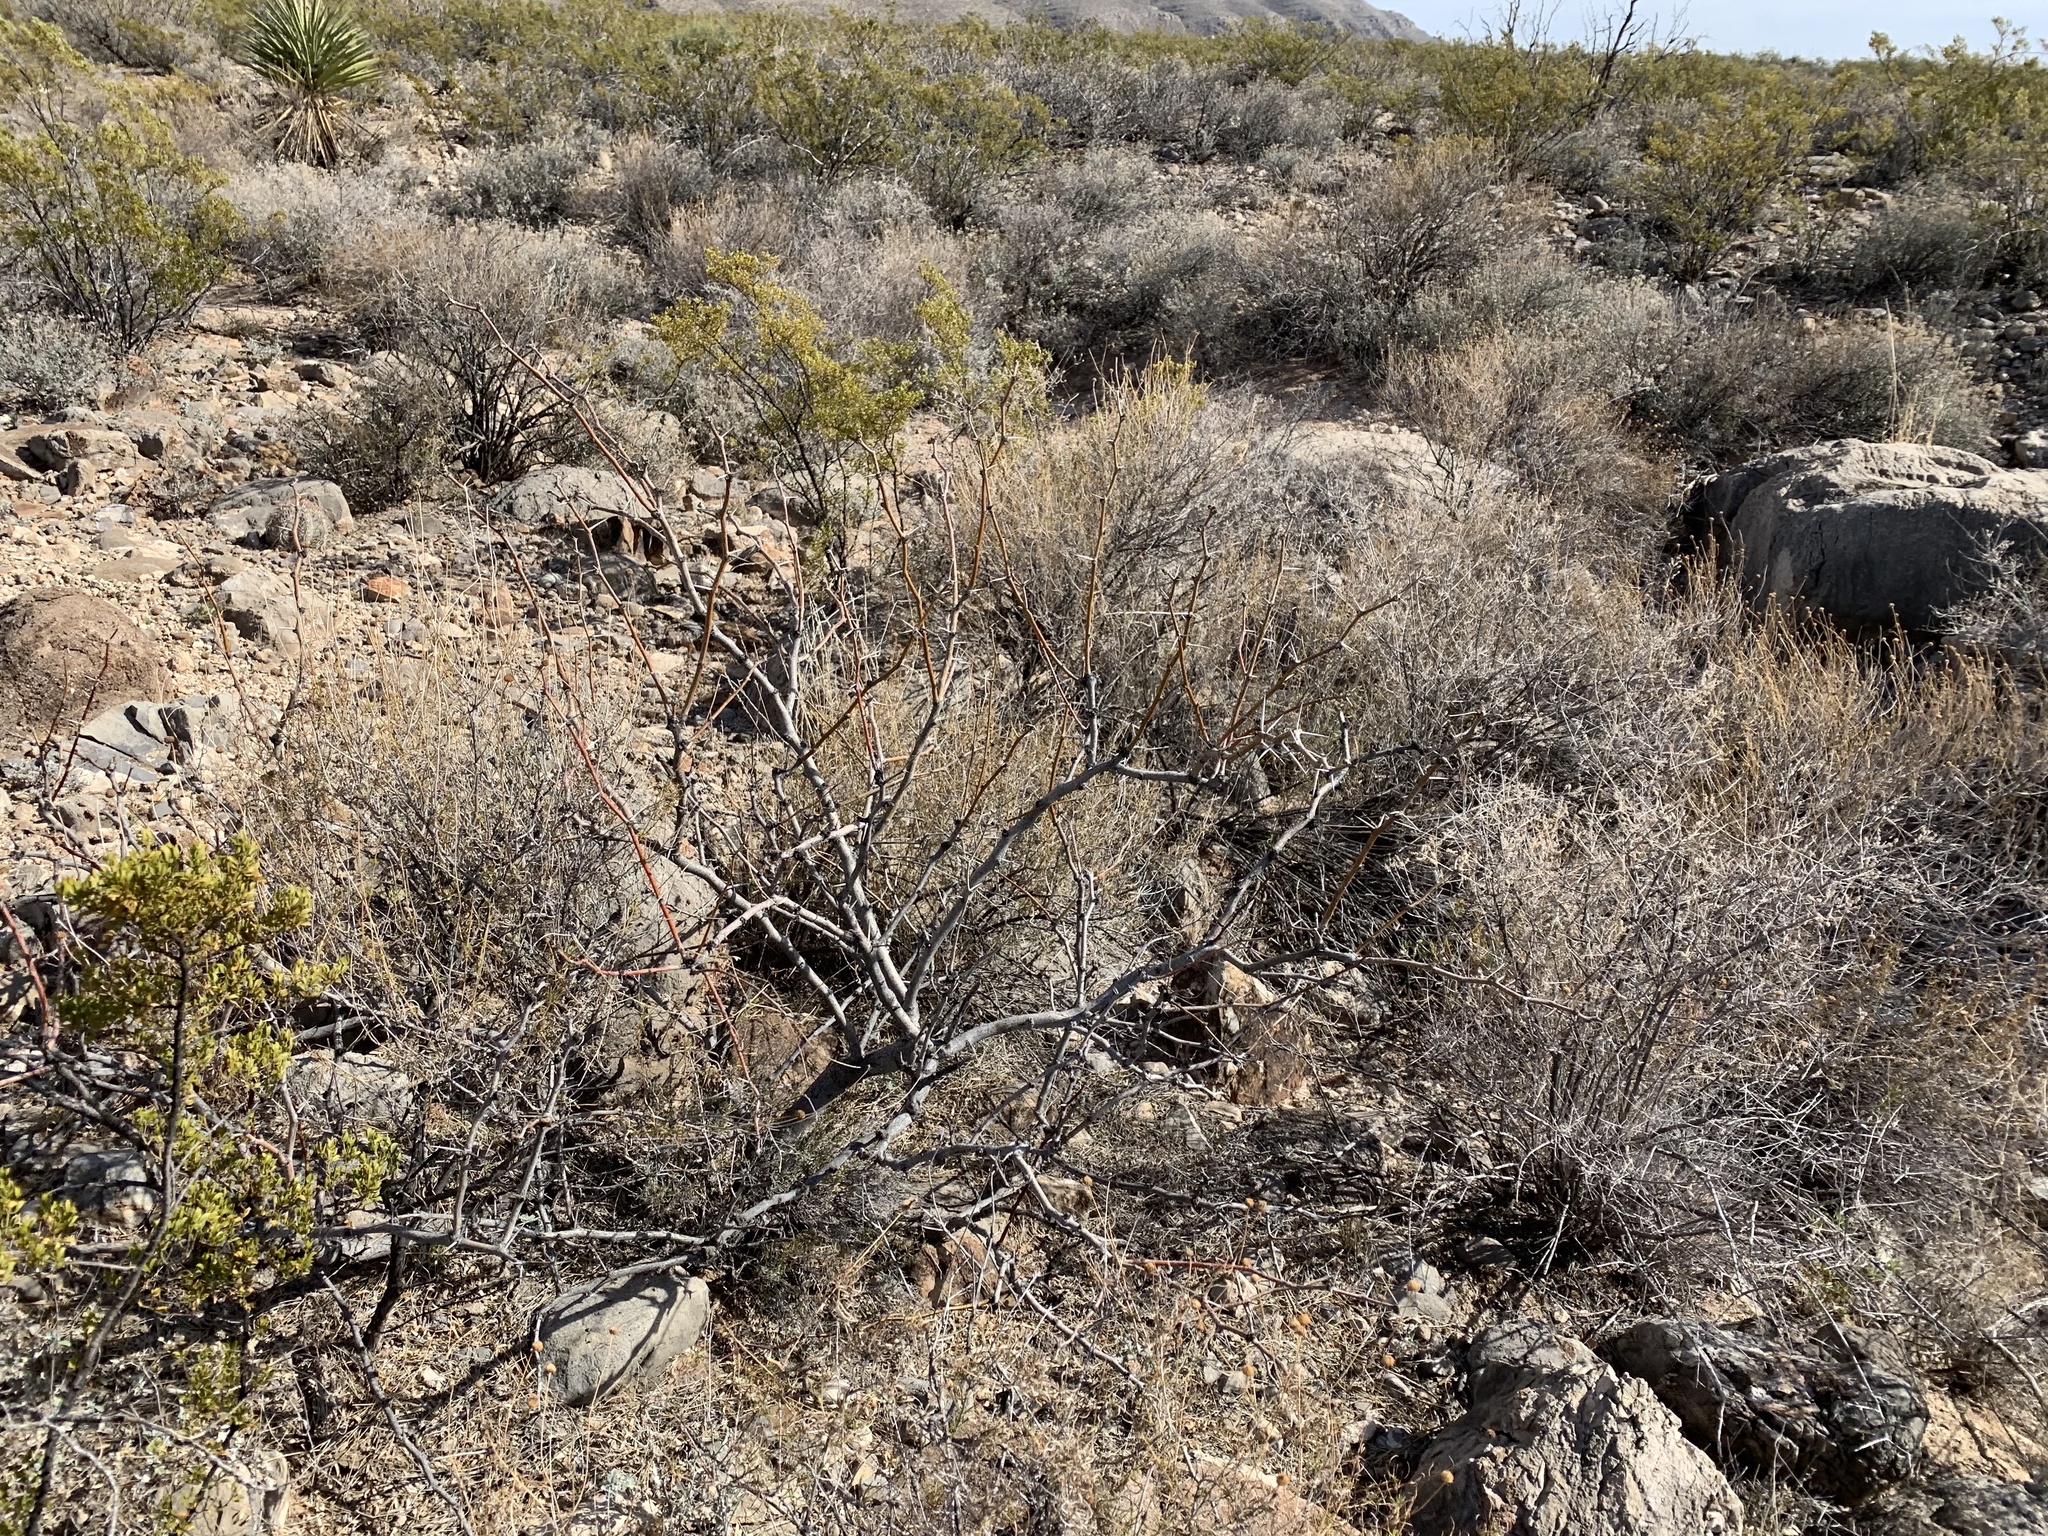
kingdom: Plantae
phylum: Tracheophyta
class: Magnoliopsida
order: Fabales
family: Fabaceae
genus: Prosopis
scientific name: Prosopis glandulosa
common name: Honey mesquite
